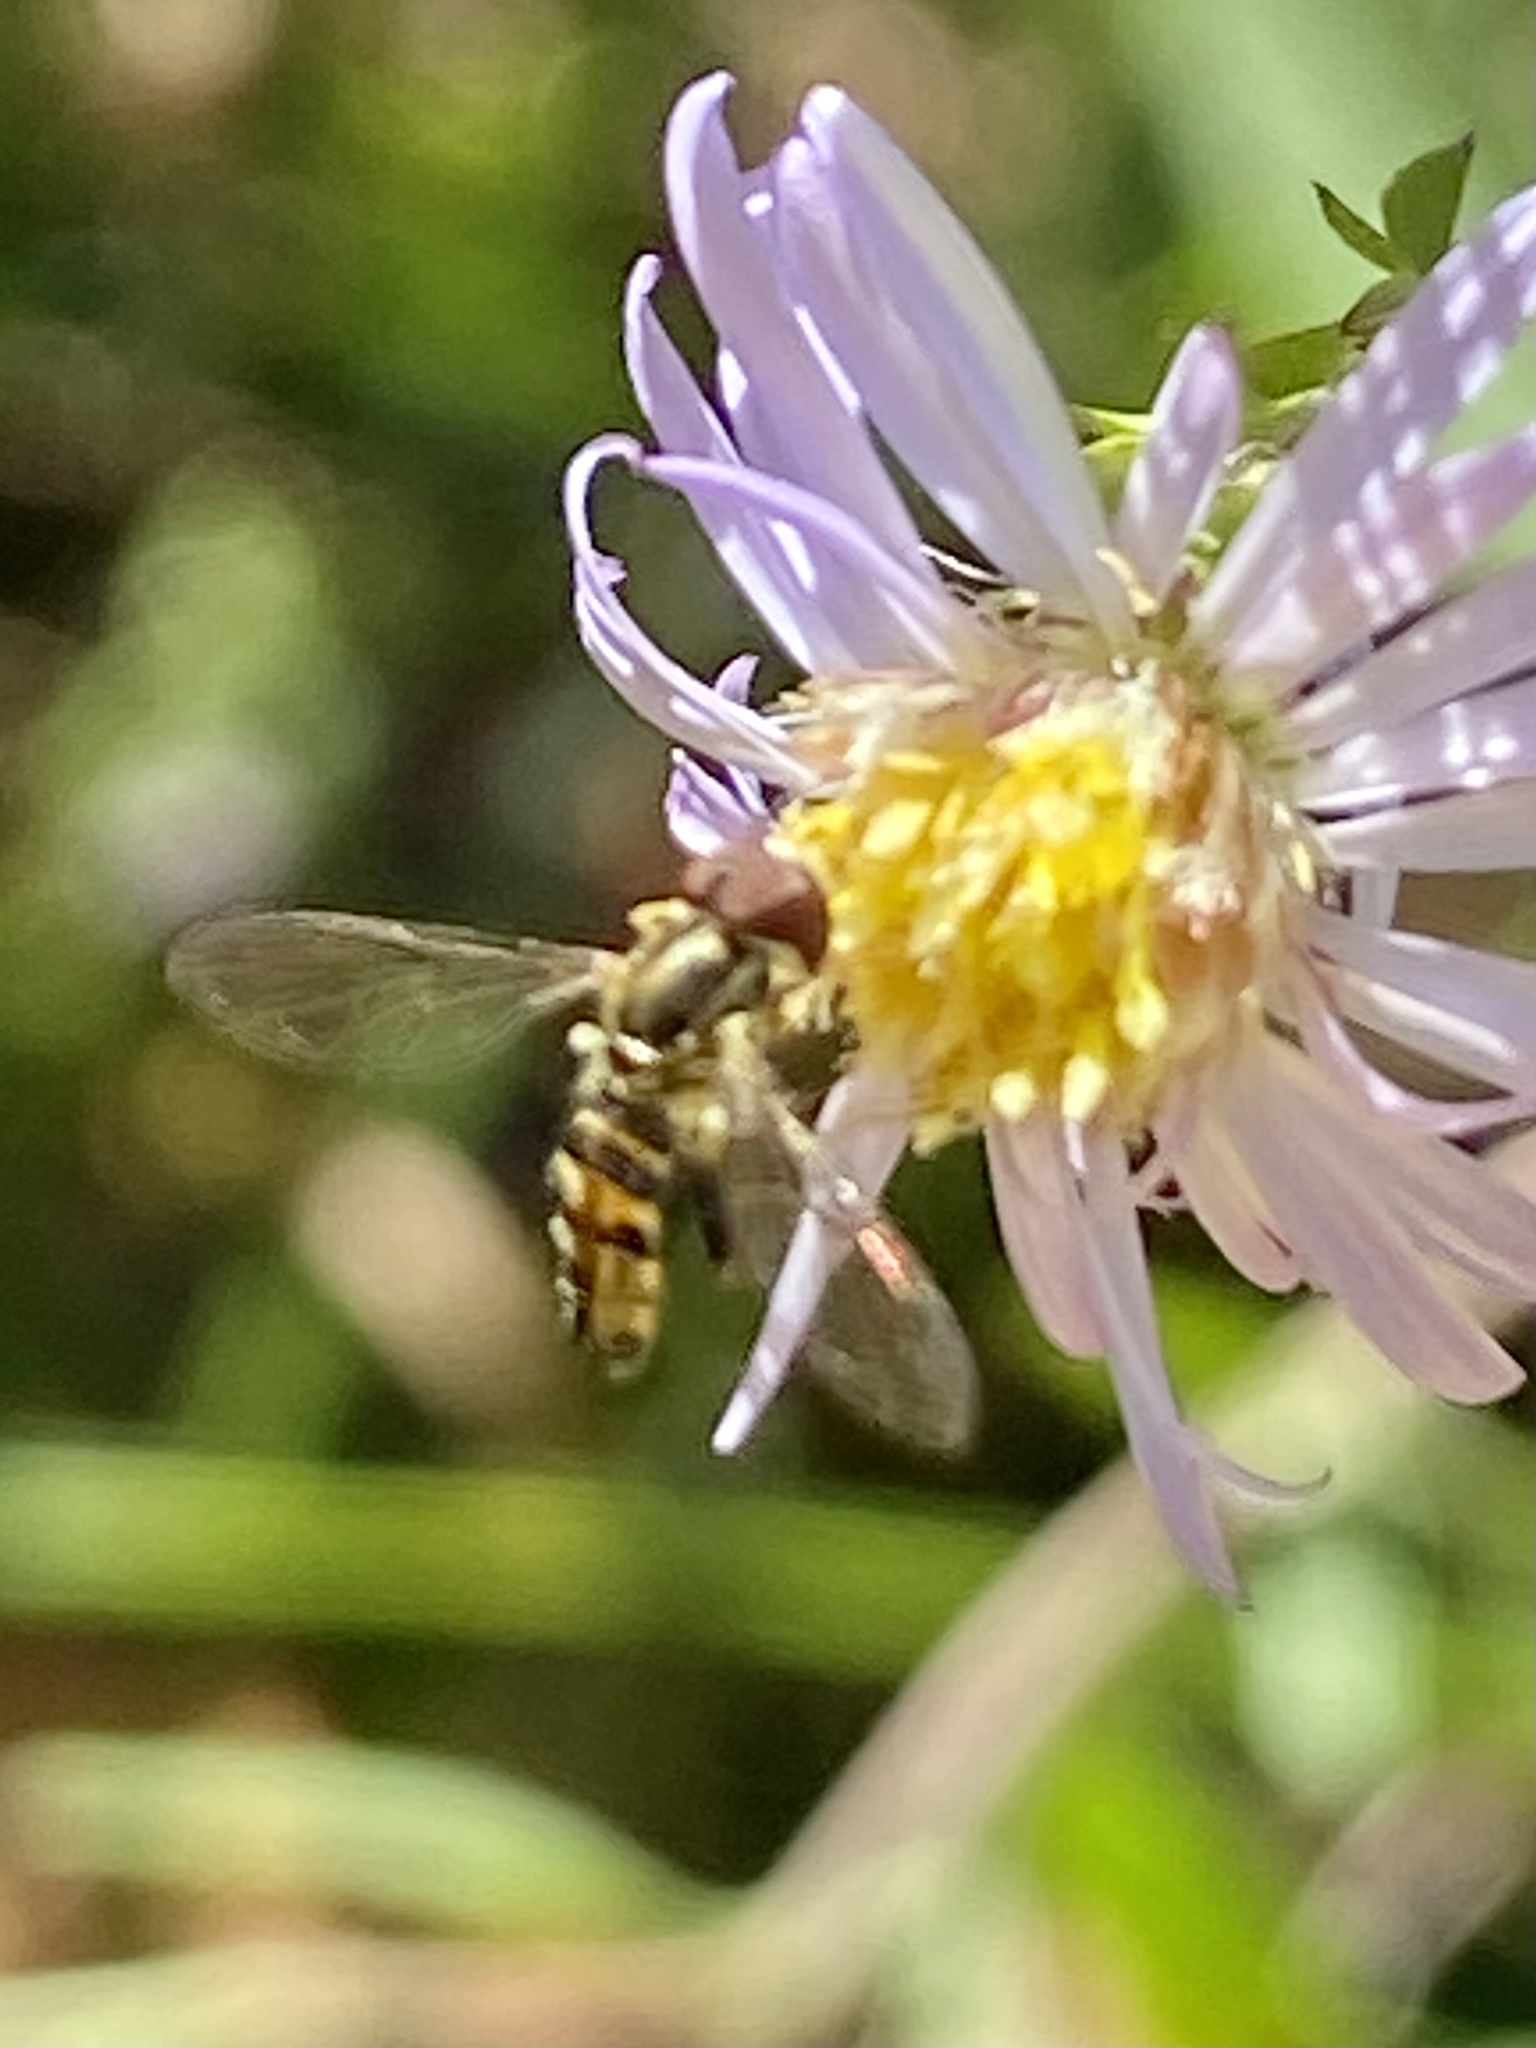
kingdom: Animalia
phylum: Arthropoda
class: Insecta
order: Diptera
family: Syrphidae
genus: Toxomerus
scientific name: Toxomerus geminatus
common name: Eastern calligrapher
